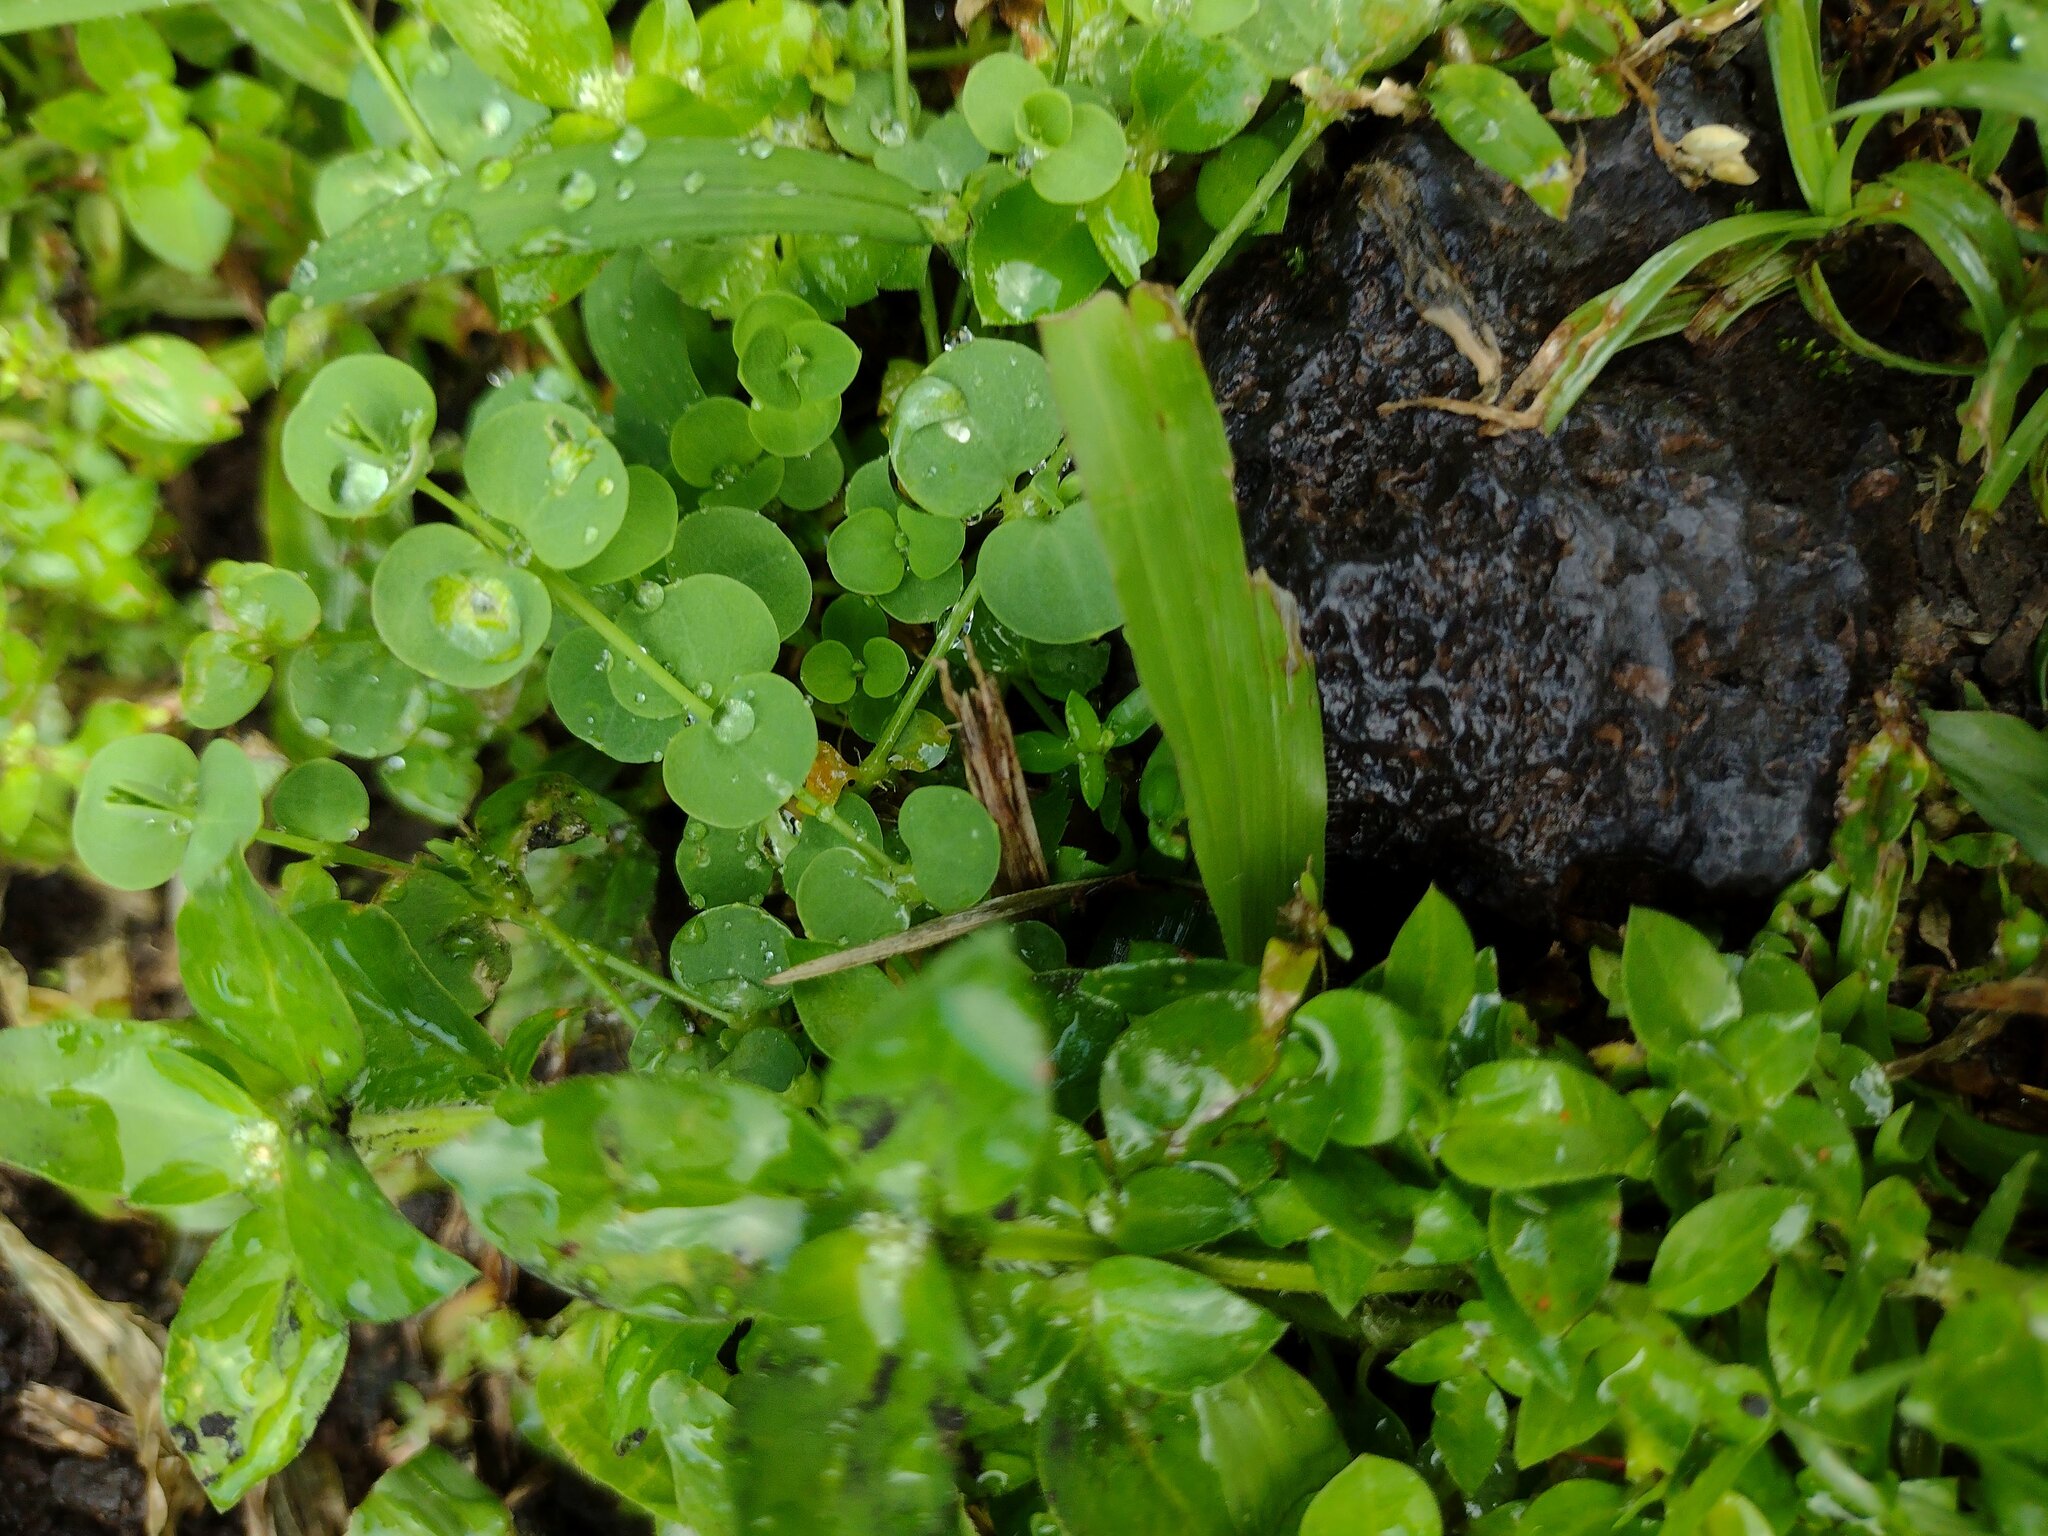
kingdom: Plantae
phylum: Tracheophyta
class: Magnoliopsida
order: Caryophyllales
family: Caryophyllaceae
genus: Drymaria
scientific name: Drymaria cordata
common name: Whitesnow
